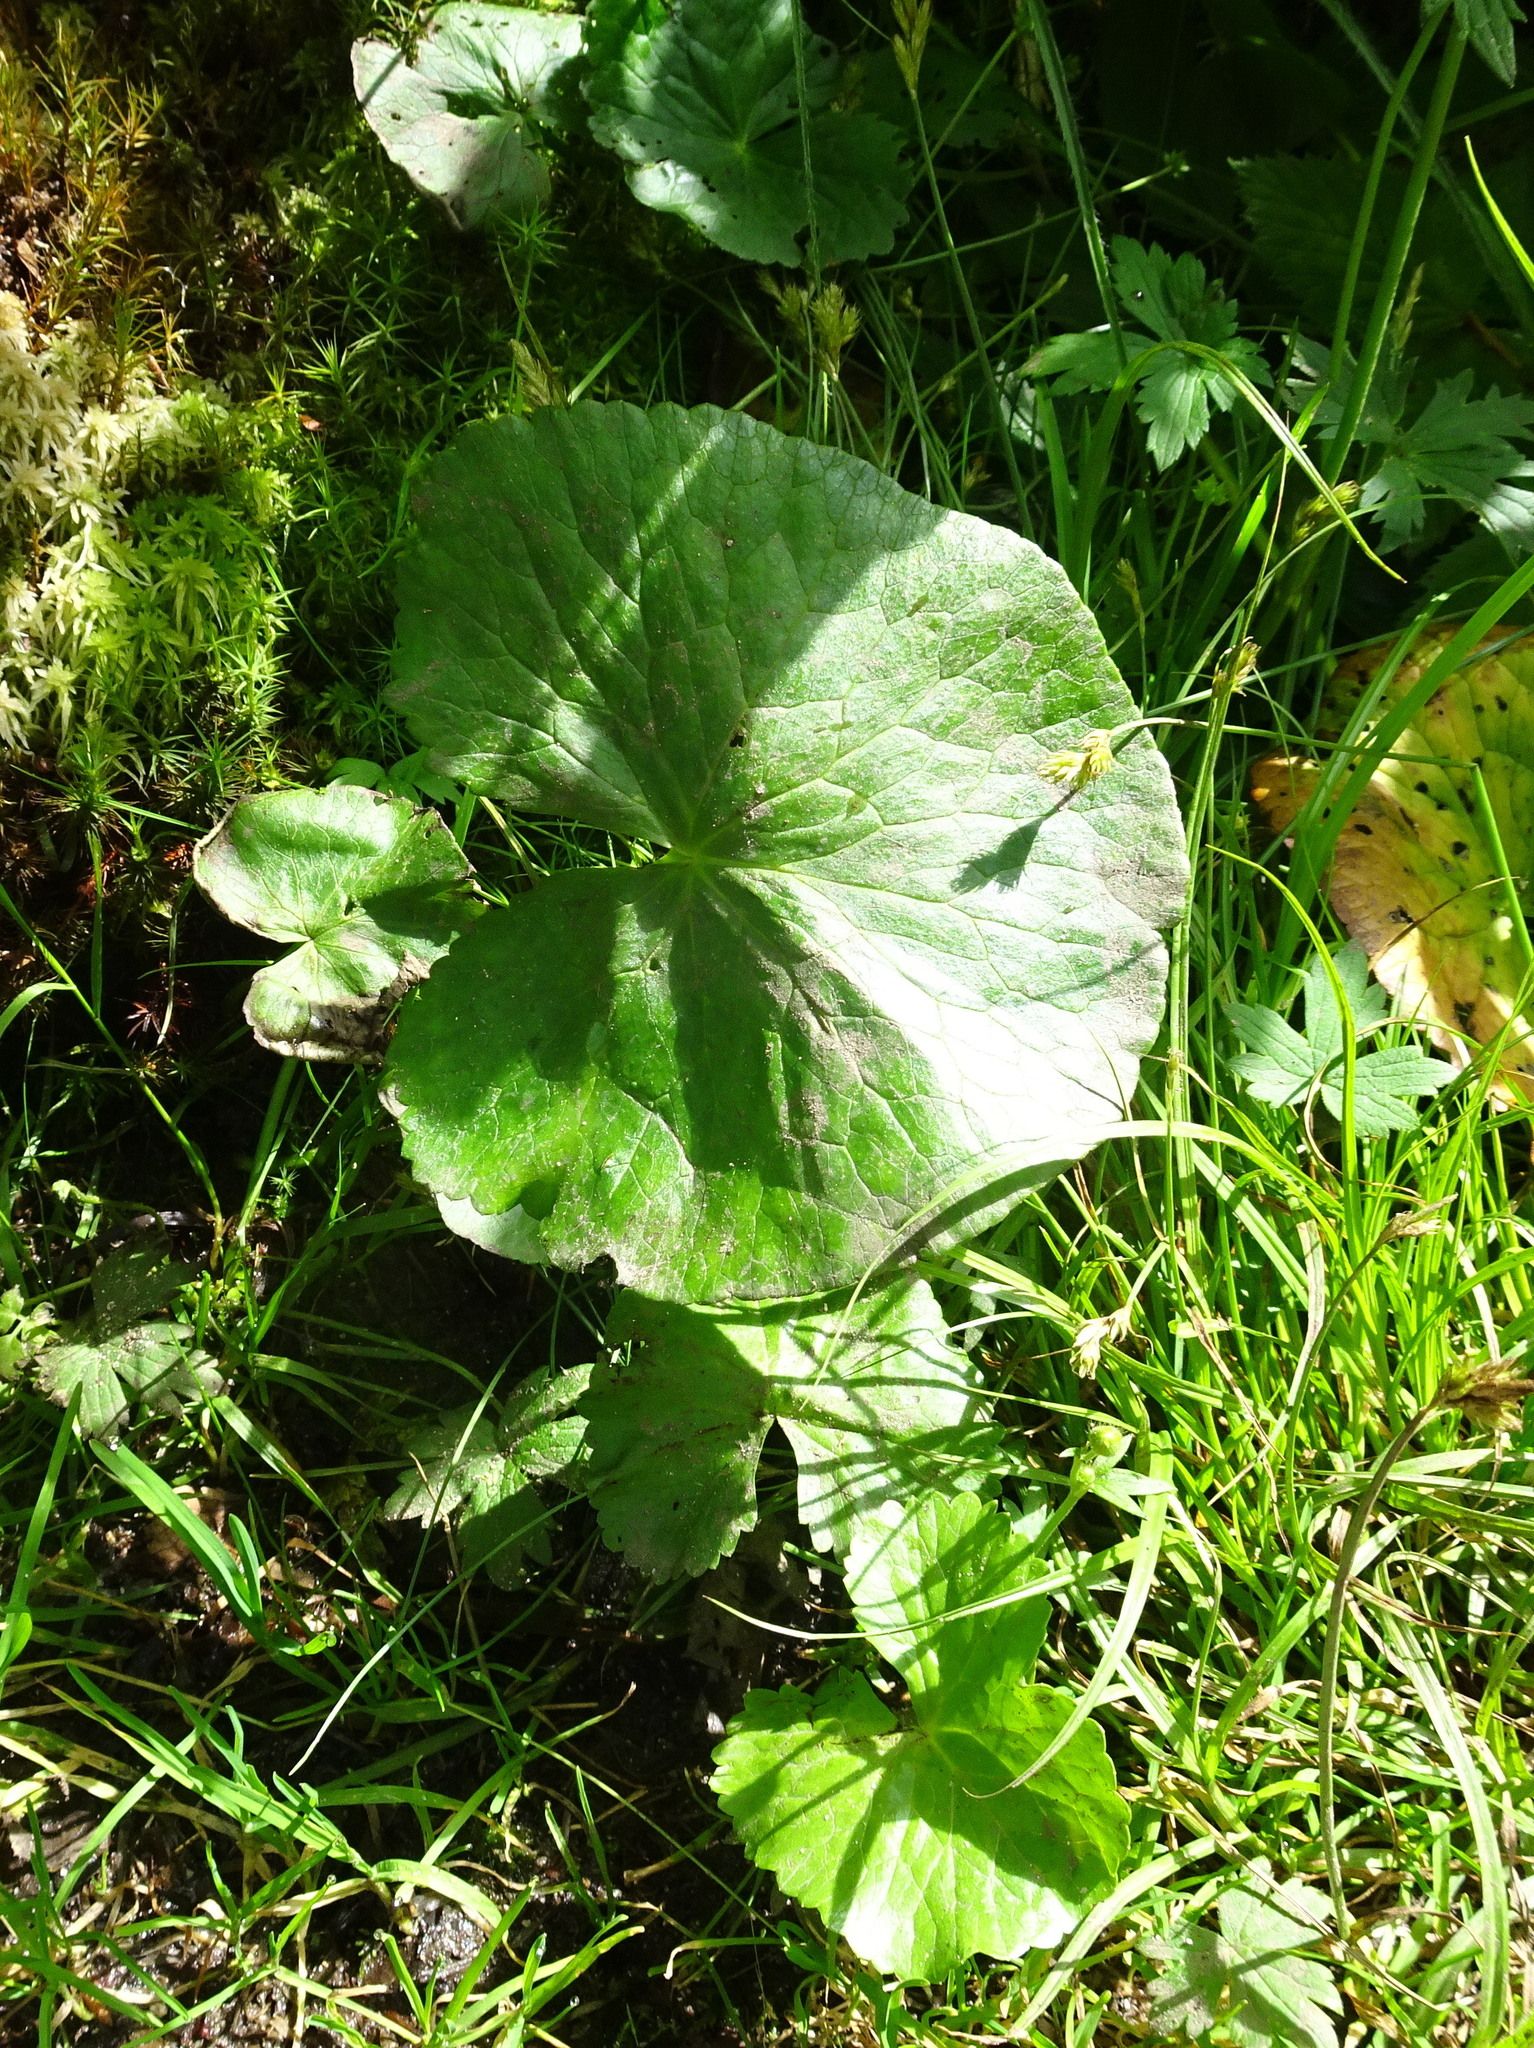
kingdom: Plantae
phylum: Tracheophyta
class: Magnoliopsida
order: Ranunculales
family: Ranunculaceae
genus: Caltha
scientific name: Caltha palustris
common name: Marsh marigold
